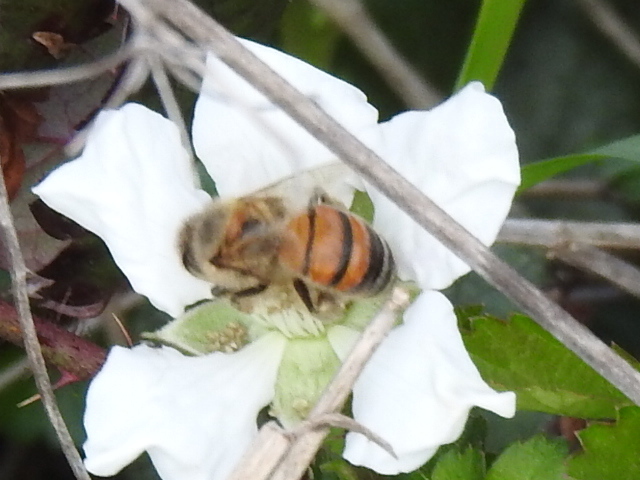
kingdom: Animalia
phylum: Arthropoda
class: Insecta
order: Hymenoptera
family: Apidae
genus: Apis
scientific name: Apis mellifera
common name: Honey bee
